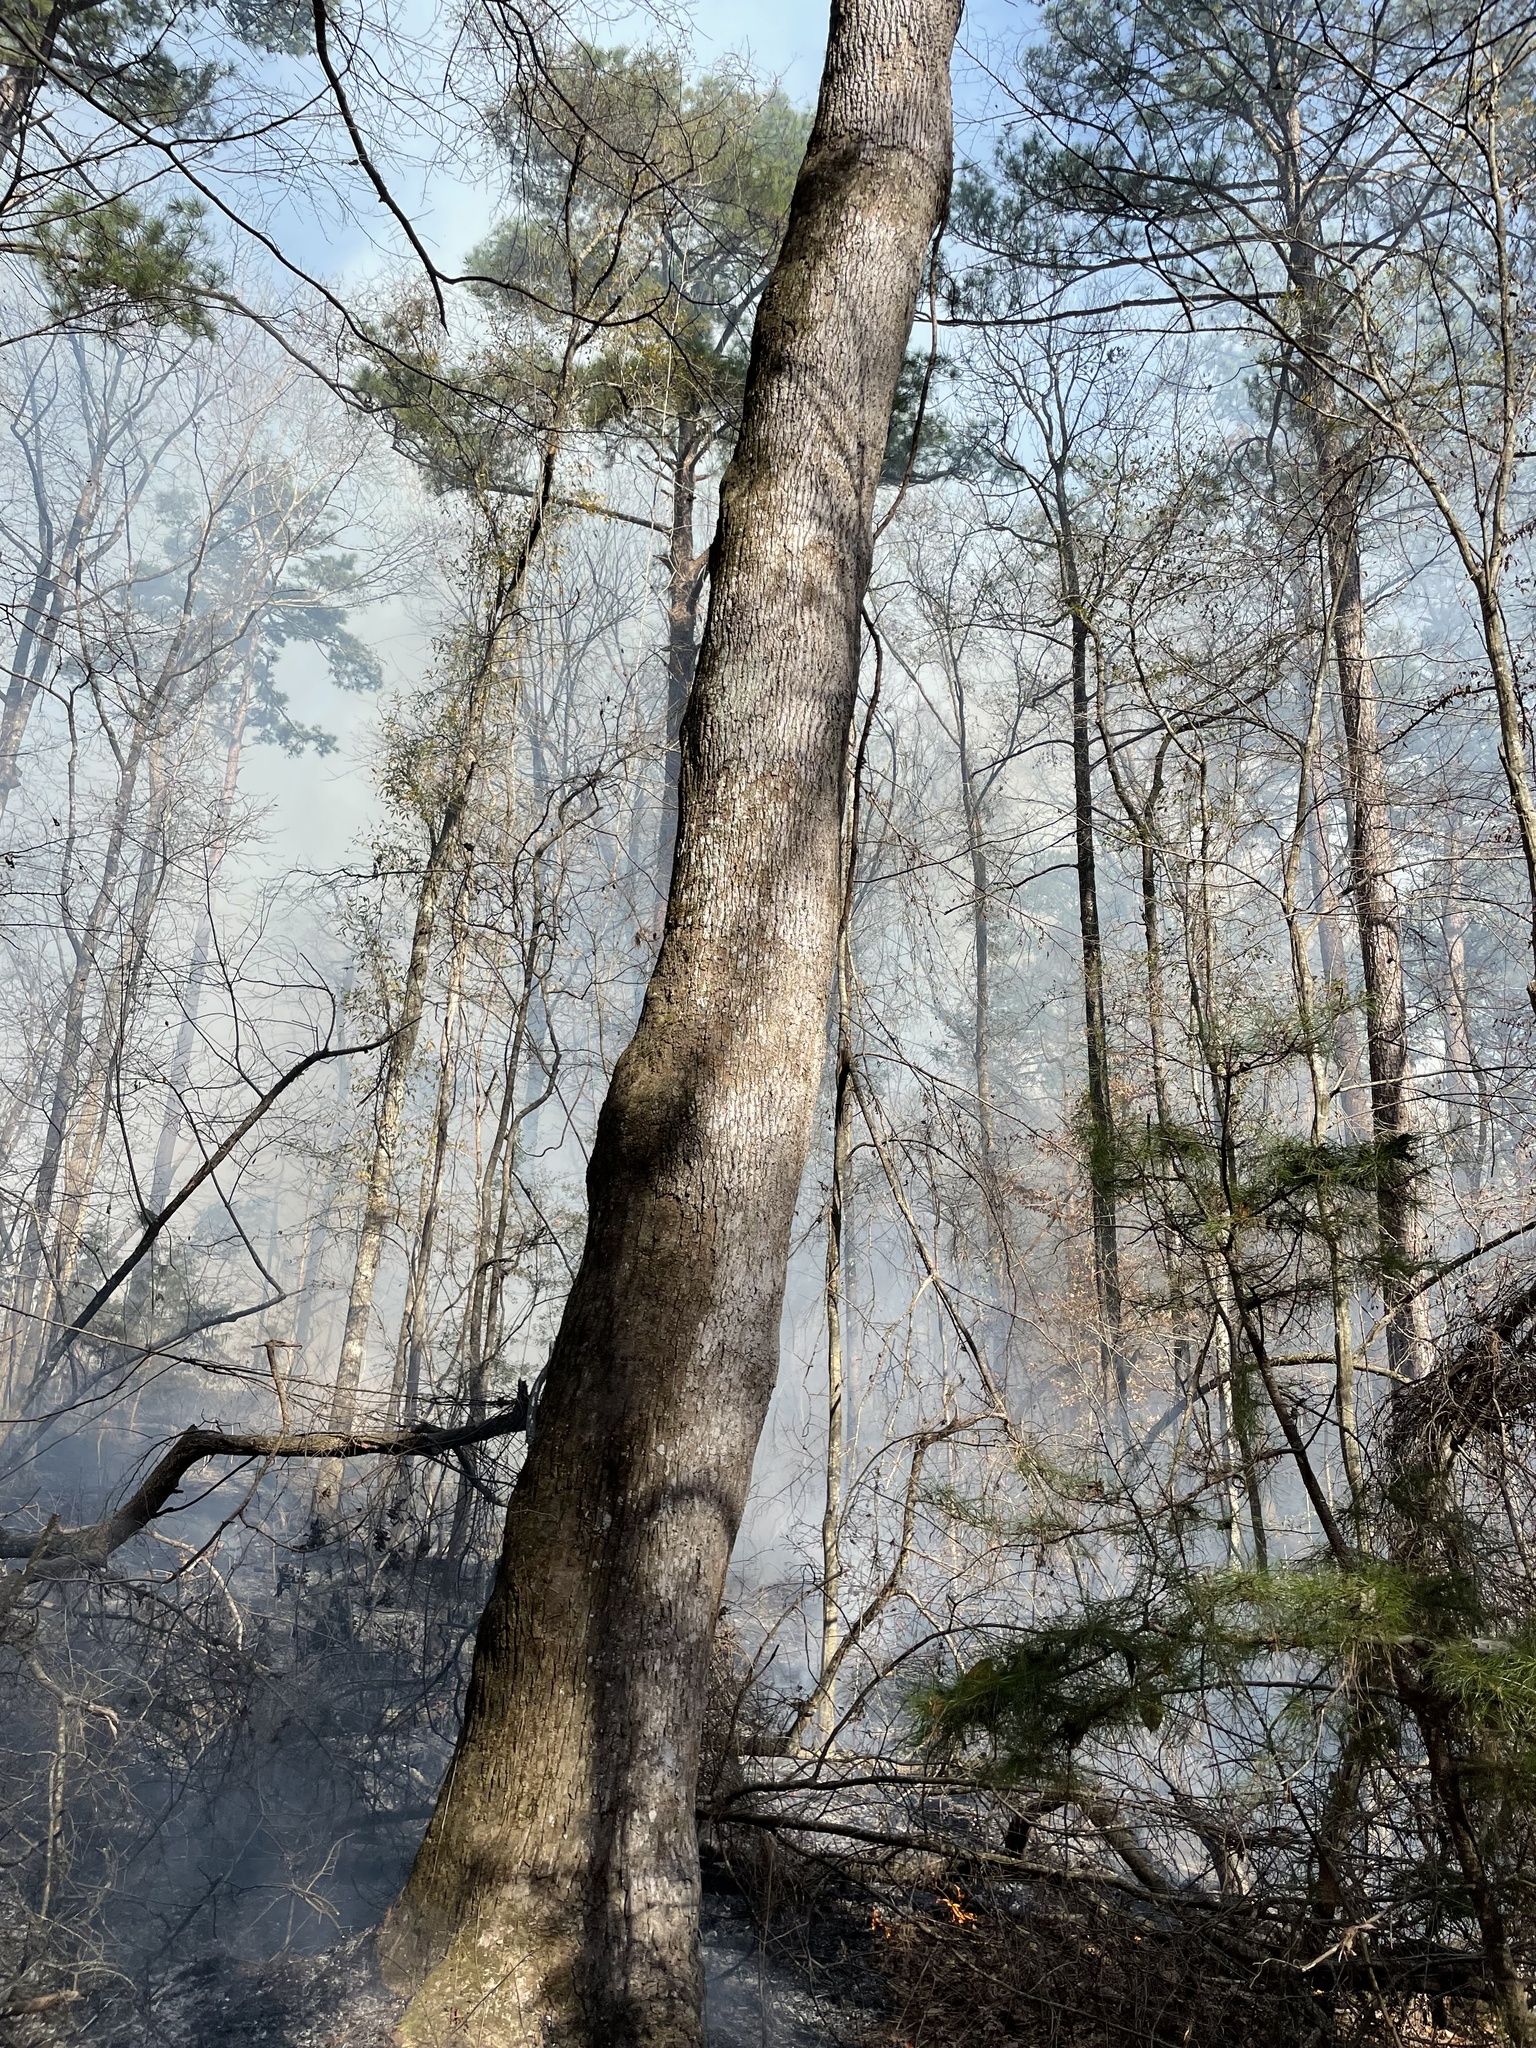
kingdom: Plantae
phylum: Tracheophyta
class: Magnoliopsida
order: Magnoliales
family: Magnoliaceae
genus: Liriodendron
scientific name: Liriodendron tulipifera
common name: Tulip tree
